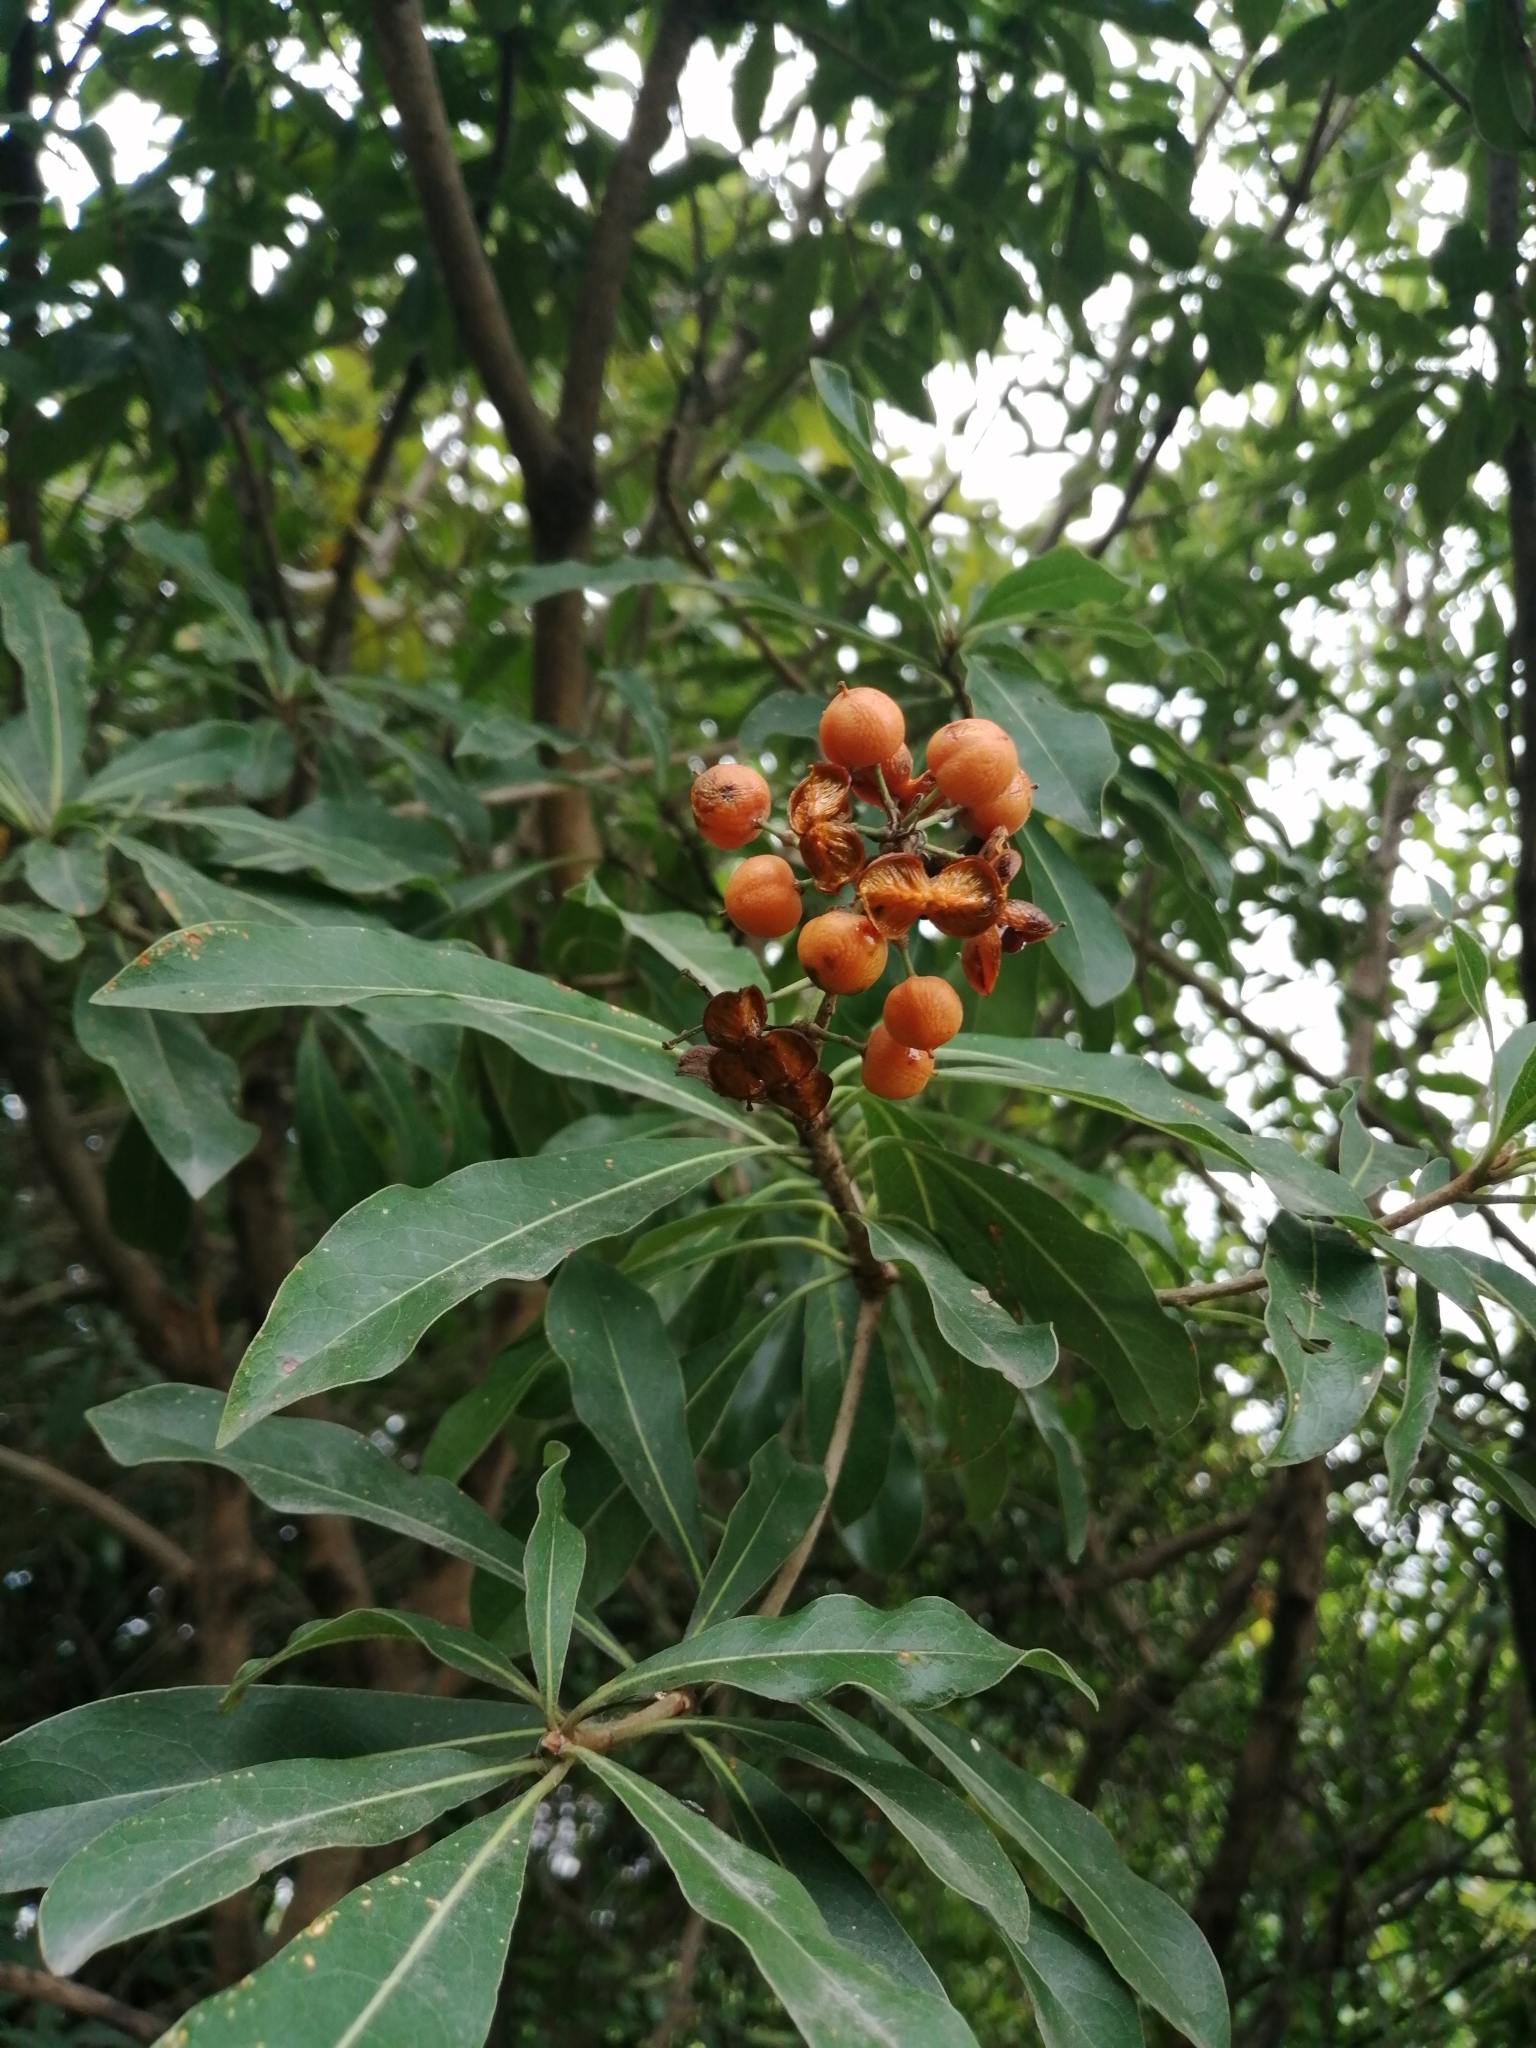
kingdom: Plantae
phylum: Tracheophyta
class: Magnoliopsida
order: Apiales
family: Pittosporaceae
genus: Pittosporum
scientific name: Pittosporum pentandrum
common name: Taiwanese cheesewood
